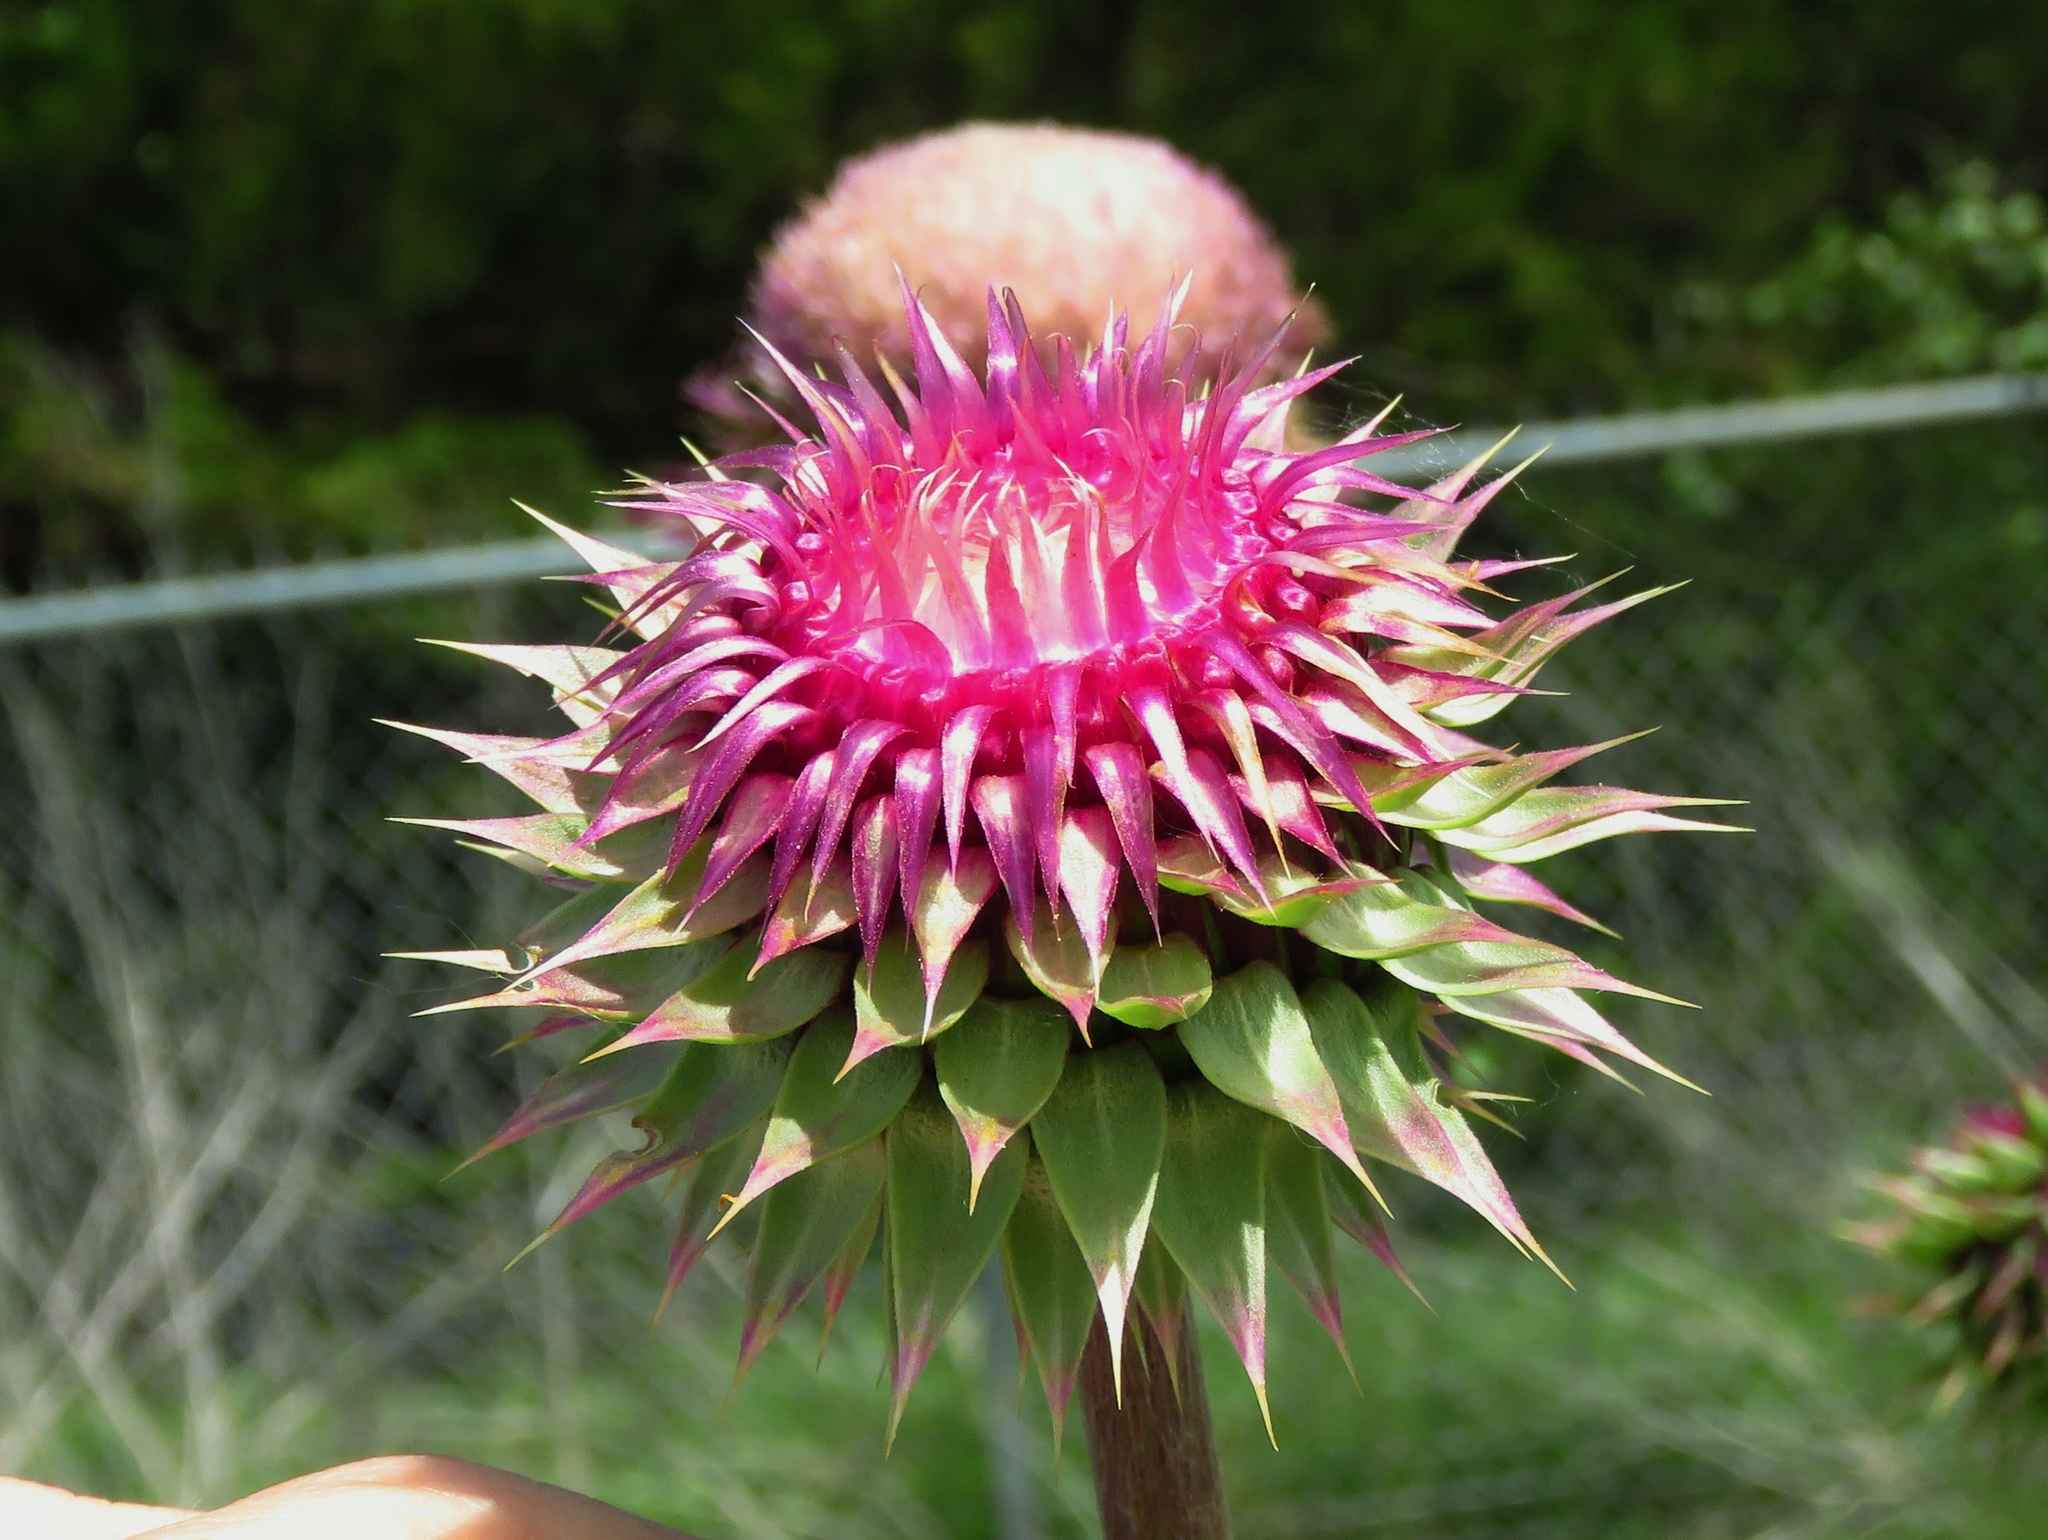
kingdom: Plantae
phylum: Tracheophyta
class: Magnoliopsida
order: Asterales
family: Asteraceae
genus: Carduus
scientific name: Carduus nutans
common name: Musk thistle
